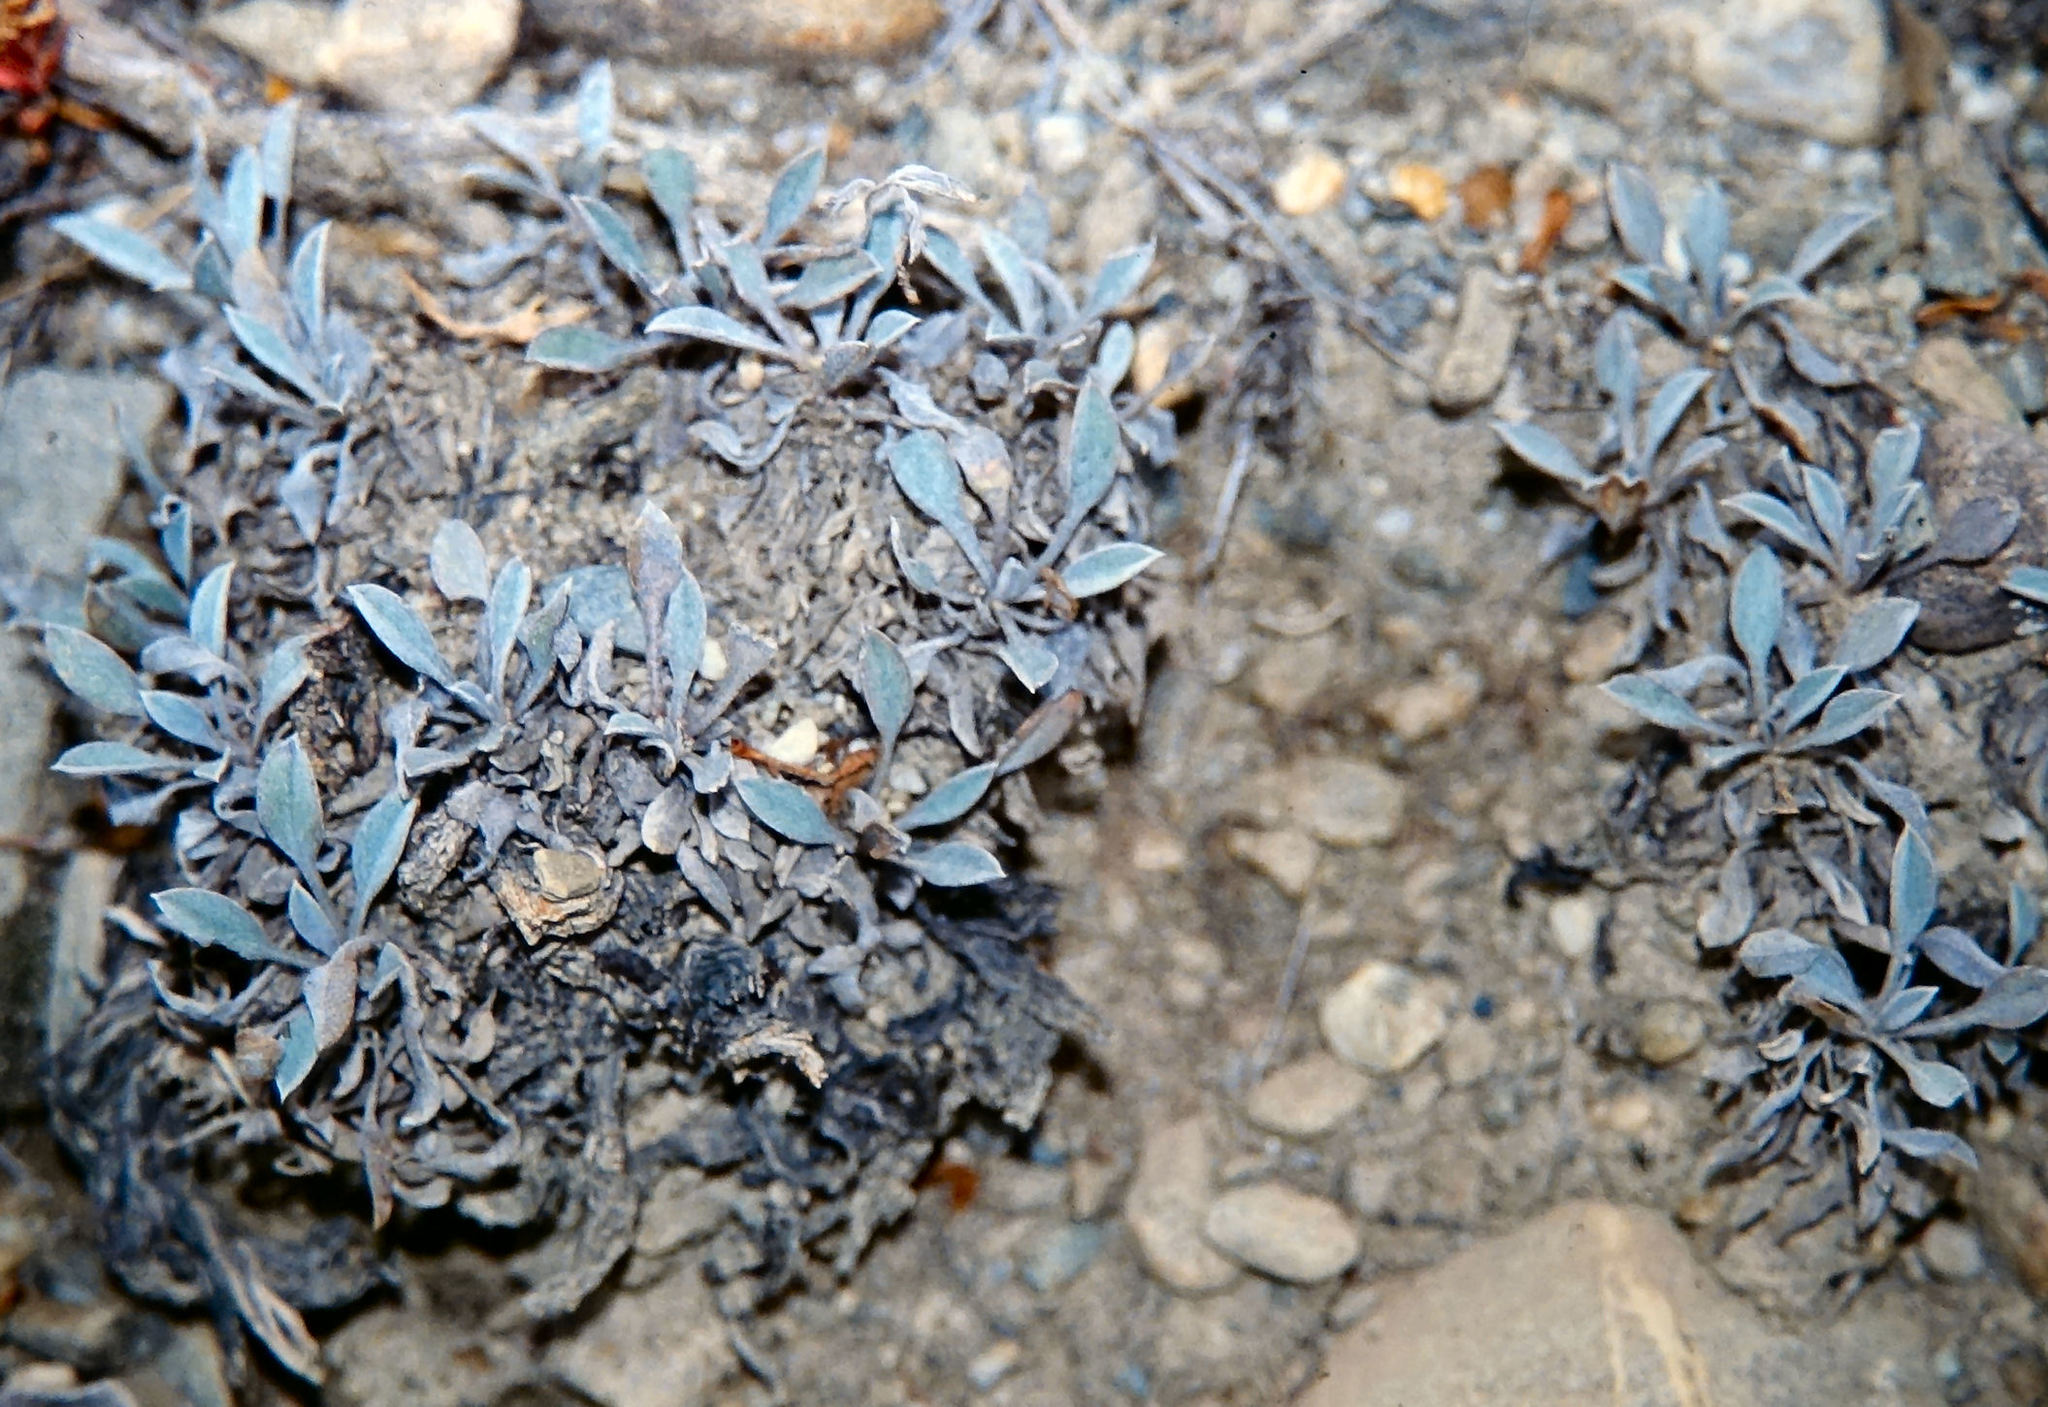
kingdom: Plantae
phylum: Tracheophyta
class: Magnoliopsida
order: Boraginales
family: Boraginaceae
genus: Myosotis
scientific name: Myosotis goyenii
